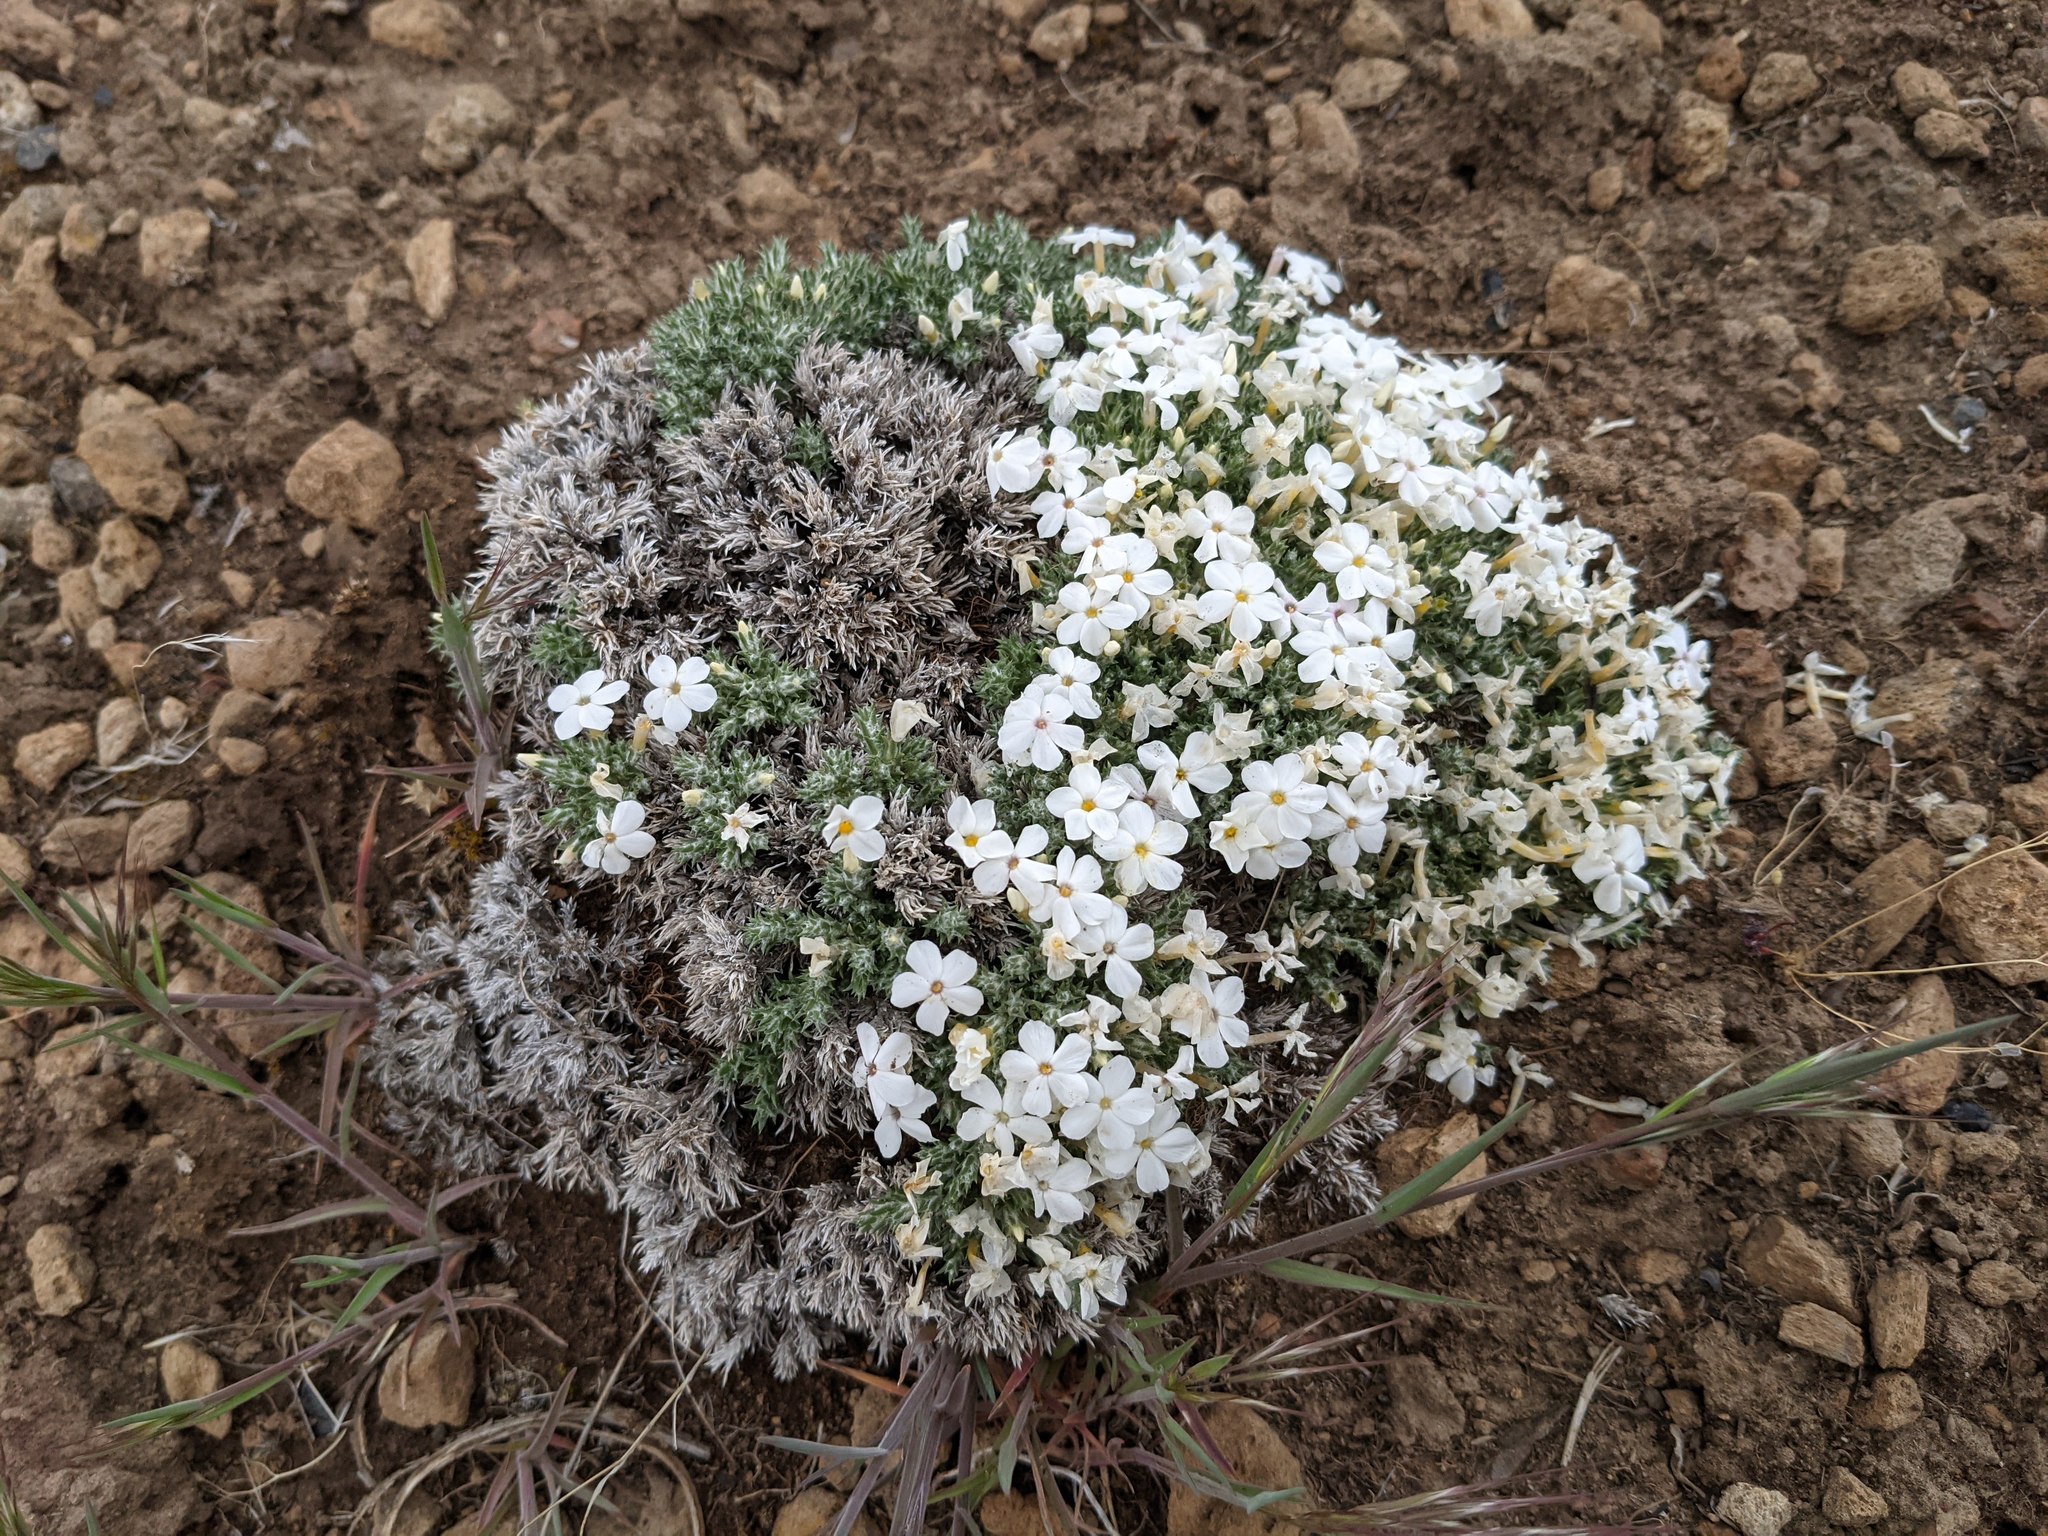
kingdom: Plantae
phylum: Tracheophyta
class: Magnoliopsida
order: Ericales
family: Polemoniaceae
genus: Phlox
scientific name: Phlox hoodii
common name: Moss phlox
